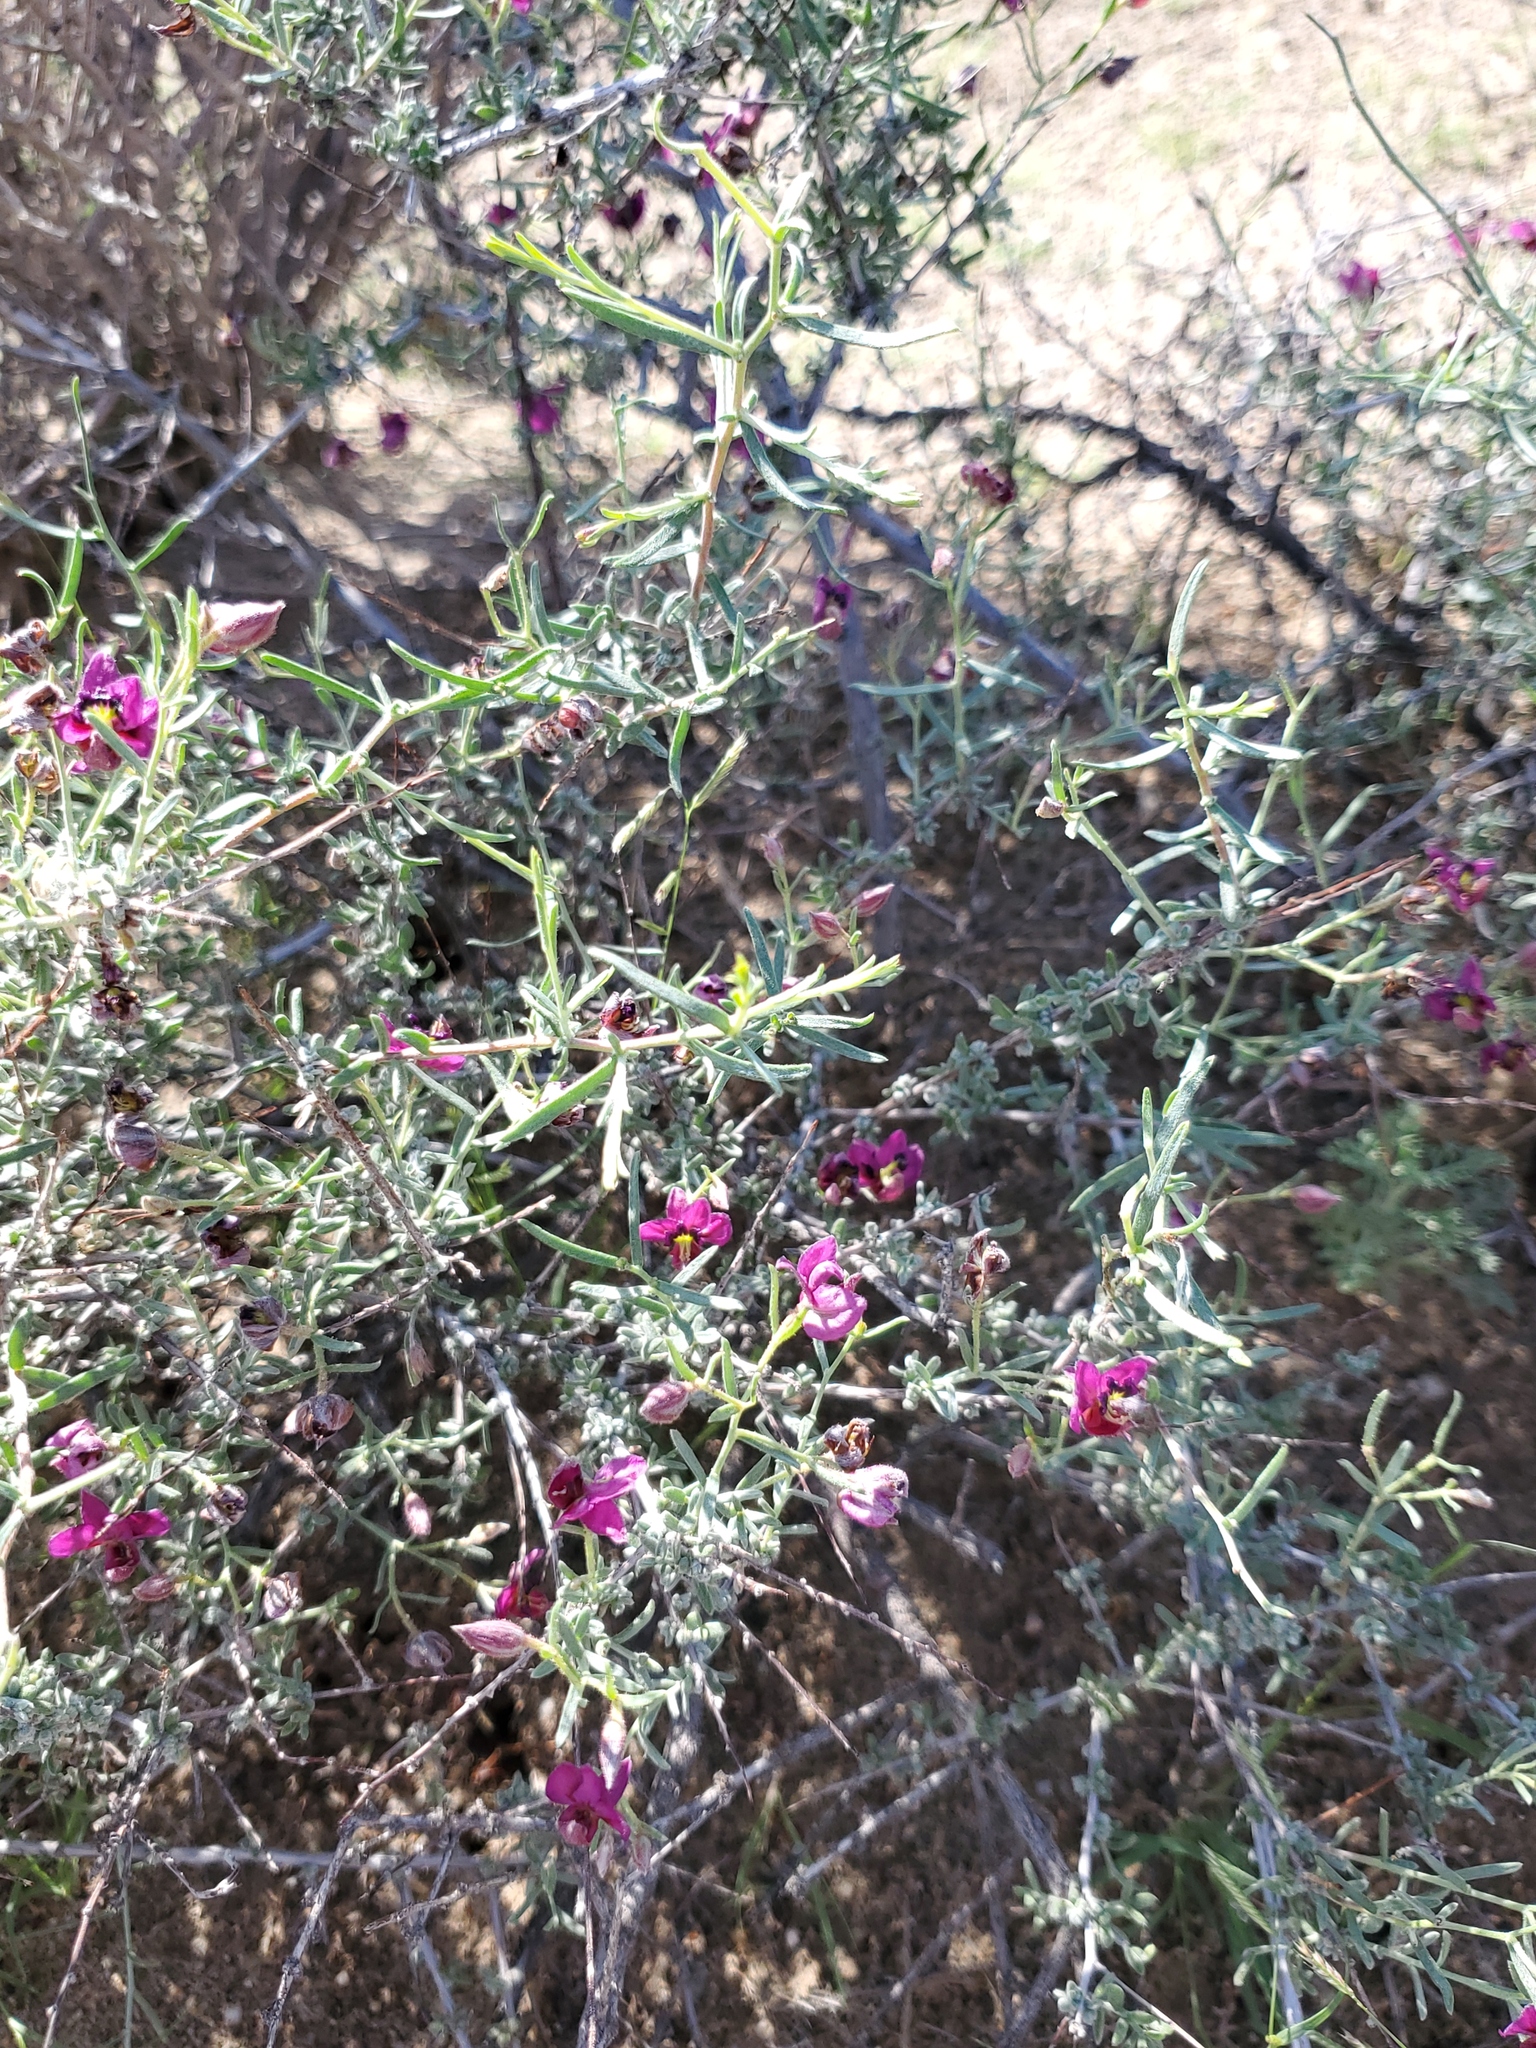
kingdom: Plantae
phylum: Tracheophyta
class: Magnoliopsida
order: Zygophyllales
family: Krameriaceae
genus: Krameria
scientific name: Krameria erecta
